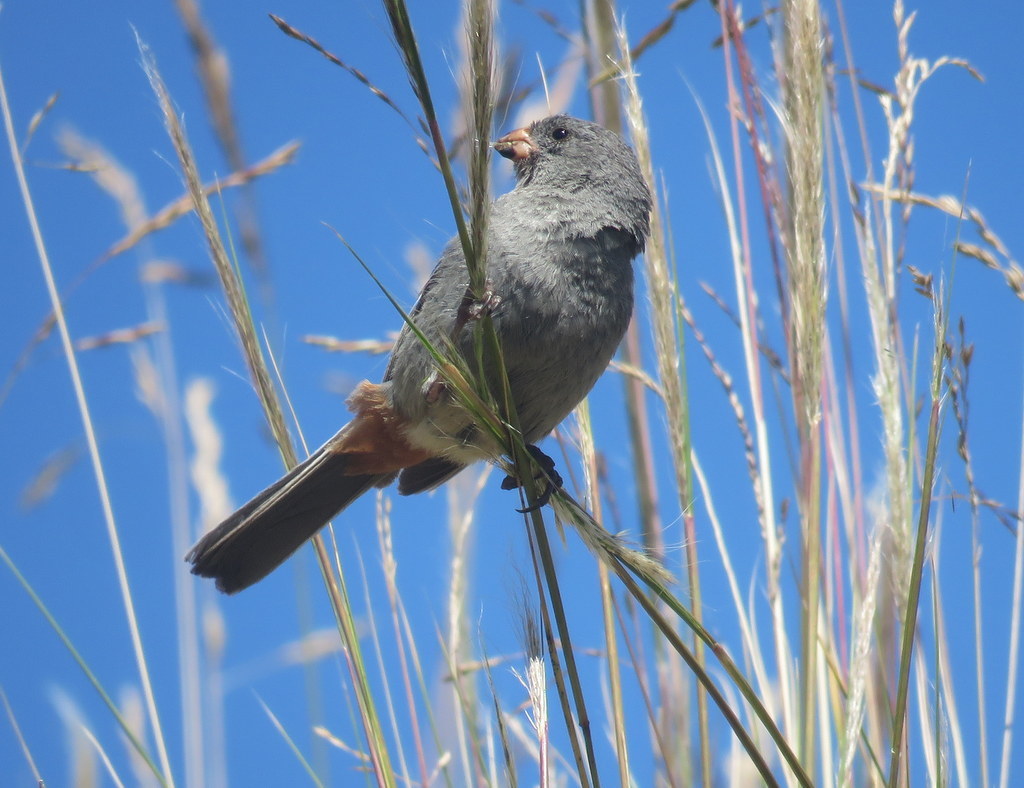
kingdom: Animalia
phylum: Chordata
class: Aves
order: Passeriformes
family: Thraupidae
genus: Catamenia
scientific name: Catamenia inornata
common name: Plain-colored seedeater
